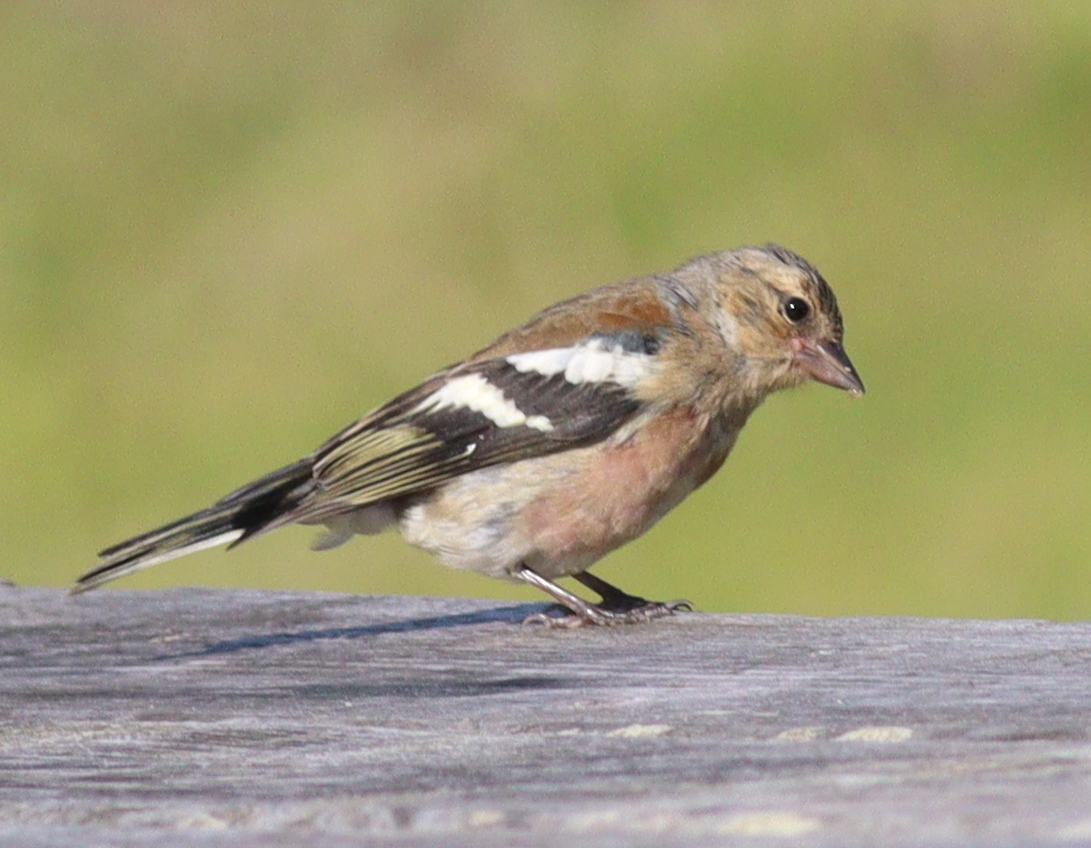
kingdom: Animalia
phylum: Chordata
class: Aves
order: Passeriformes
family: Fringillidae
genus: Fringilla
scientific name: Fringilla coelebs
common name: Common chaffinch
